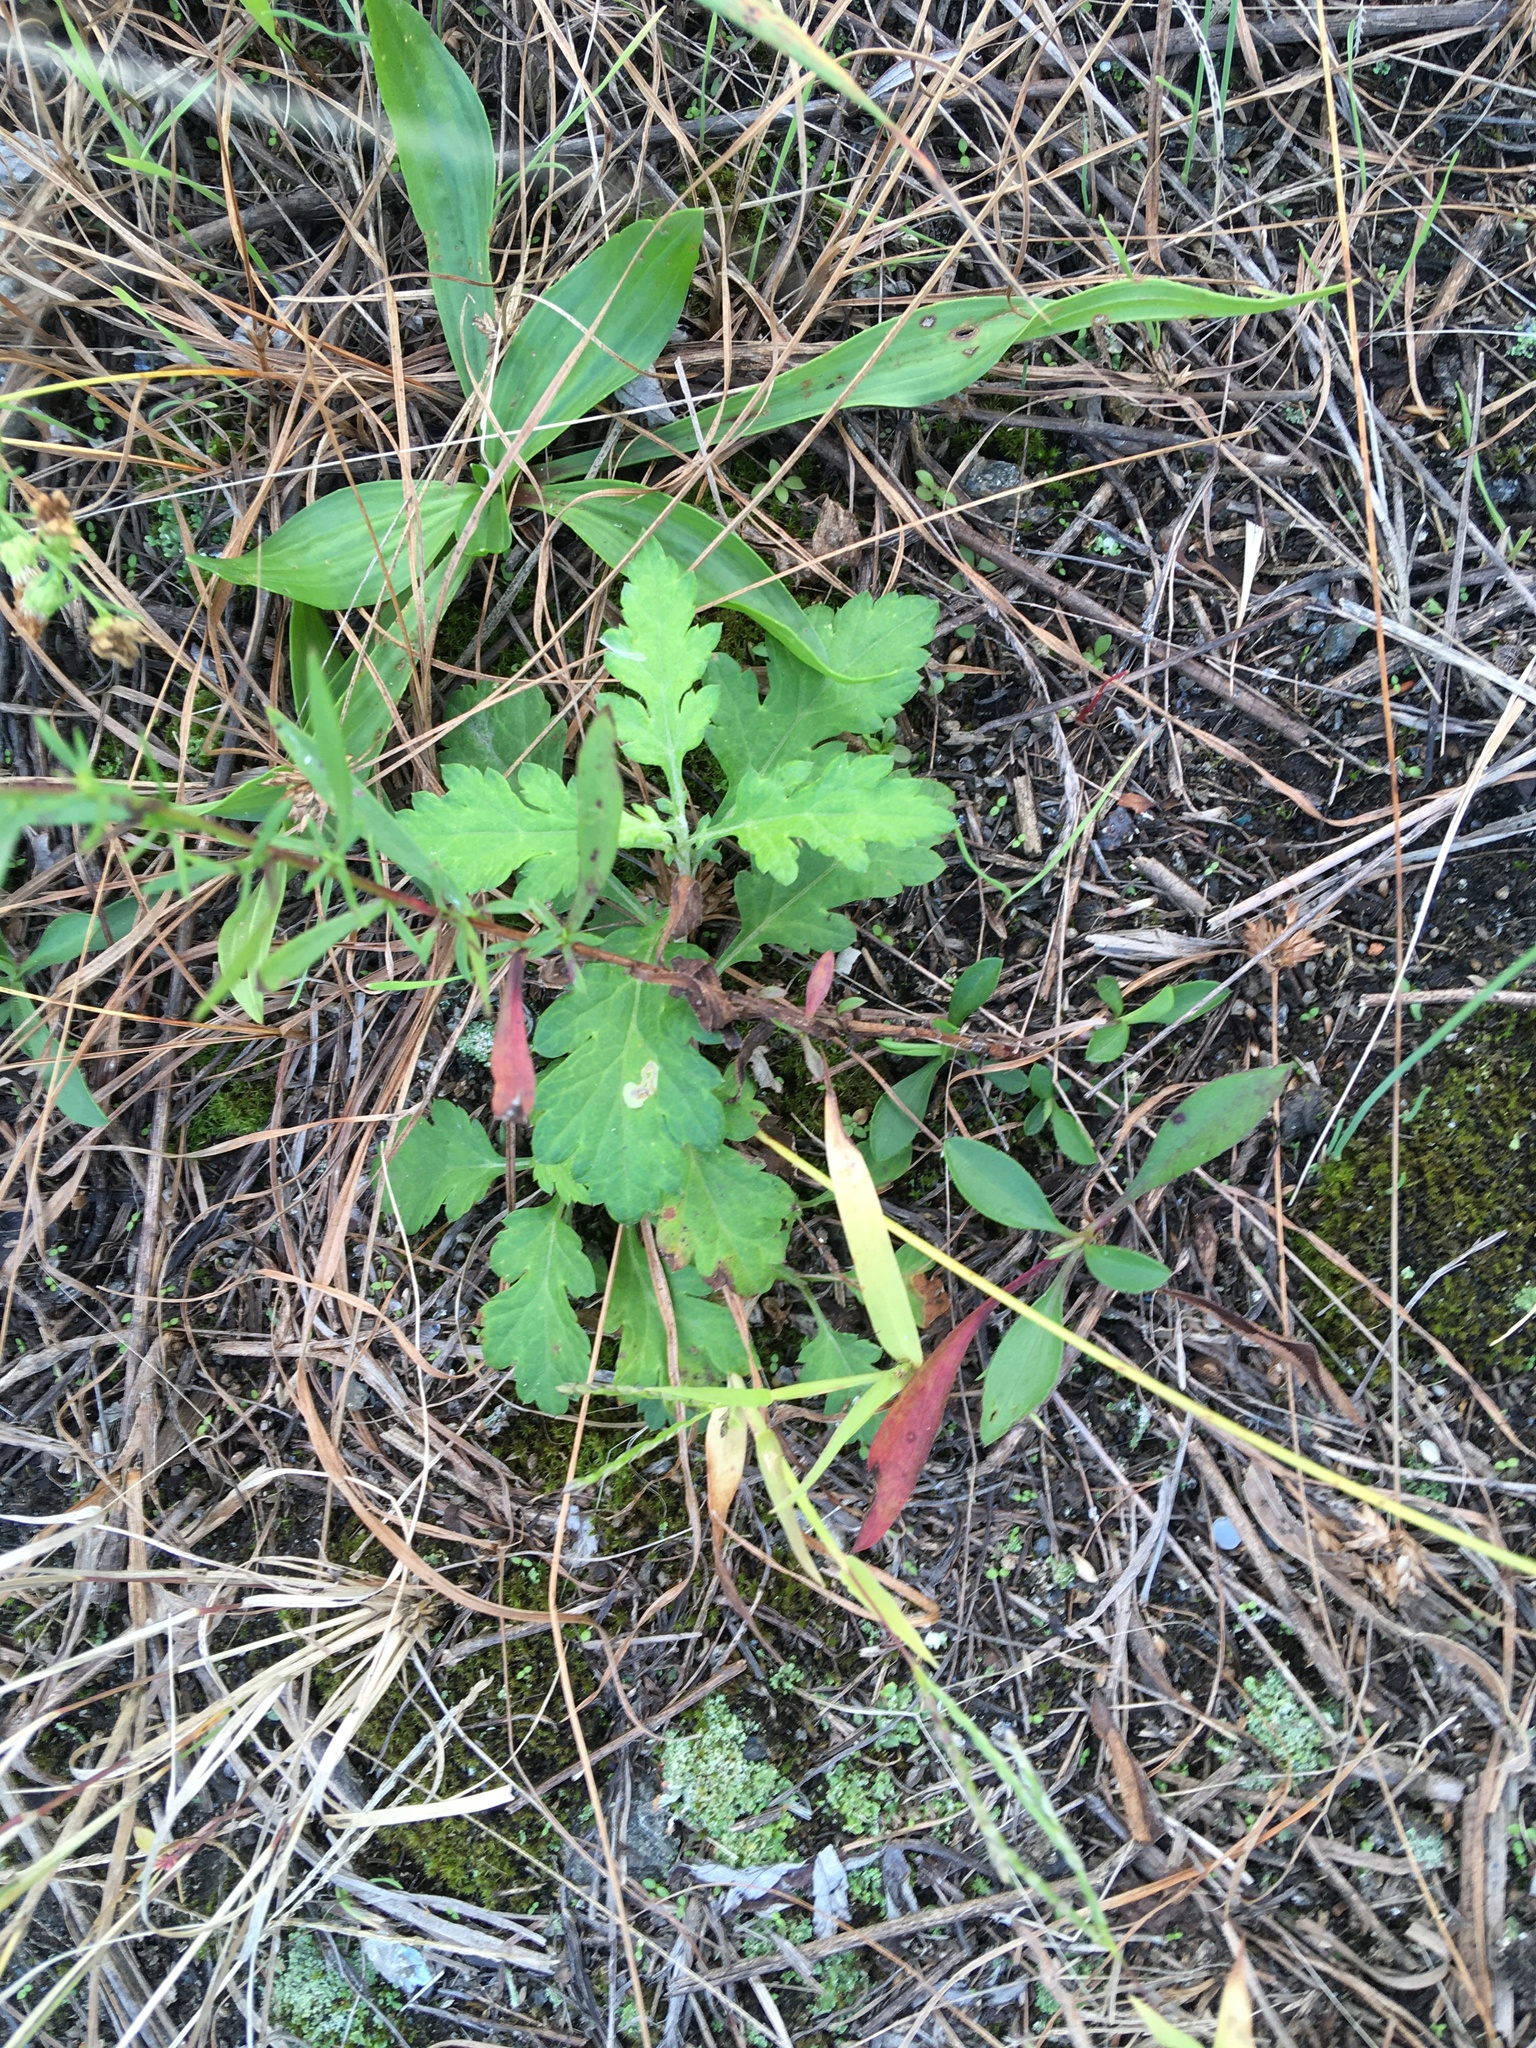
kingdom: Plantae
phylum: Tracheophyta
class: Magnoliopsida
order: Asterales
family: Asteraceae
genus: Artemisia
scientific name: Artemisia vulgaris
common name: Mugwort
